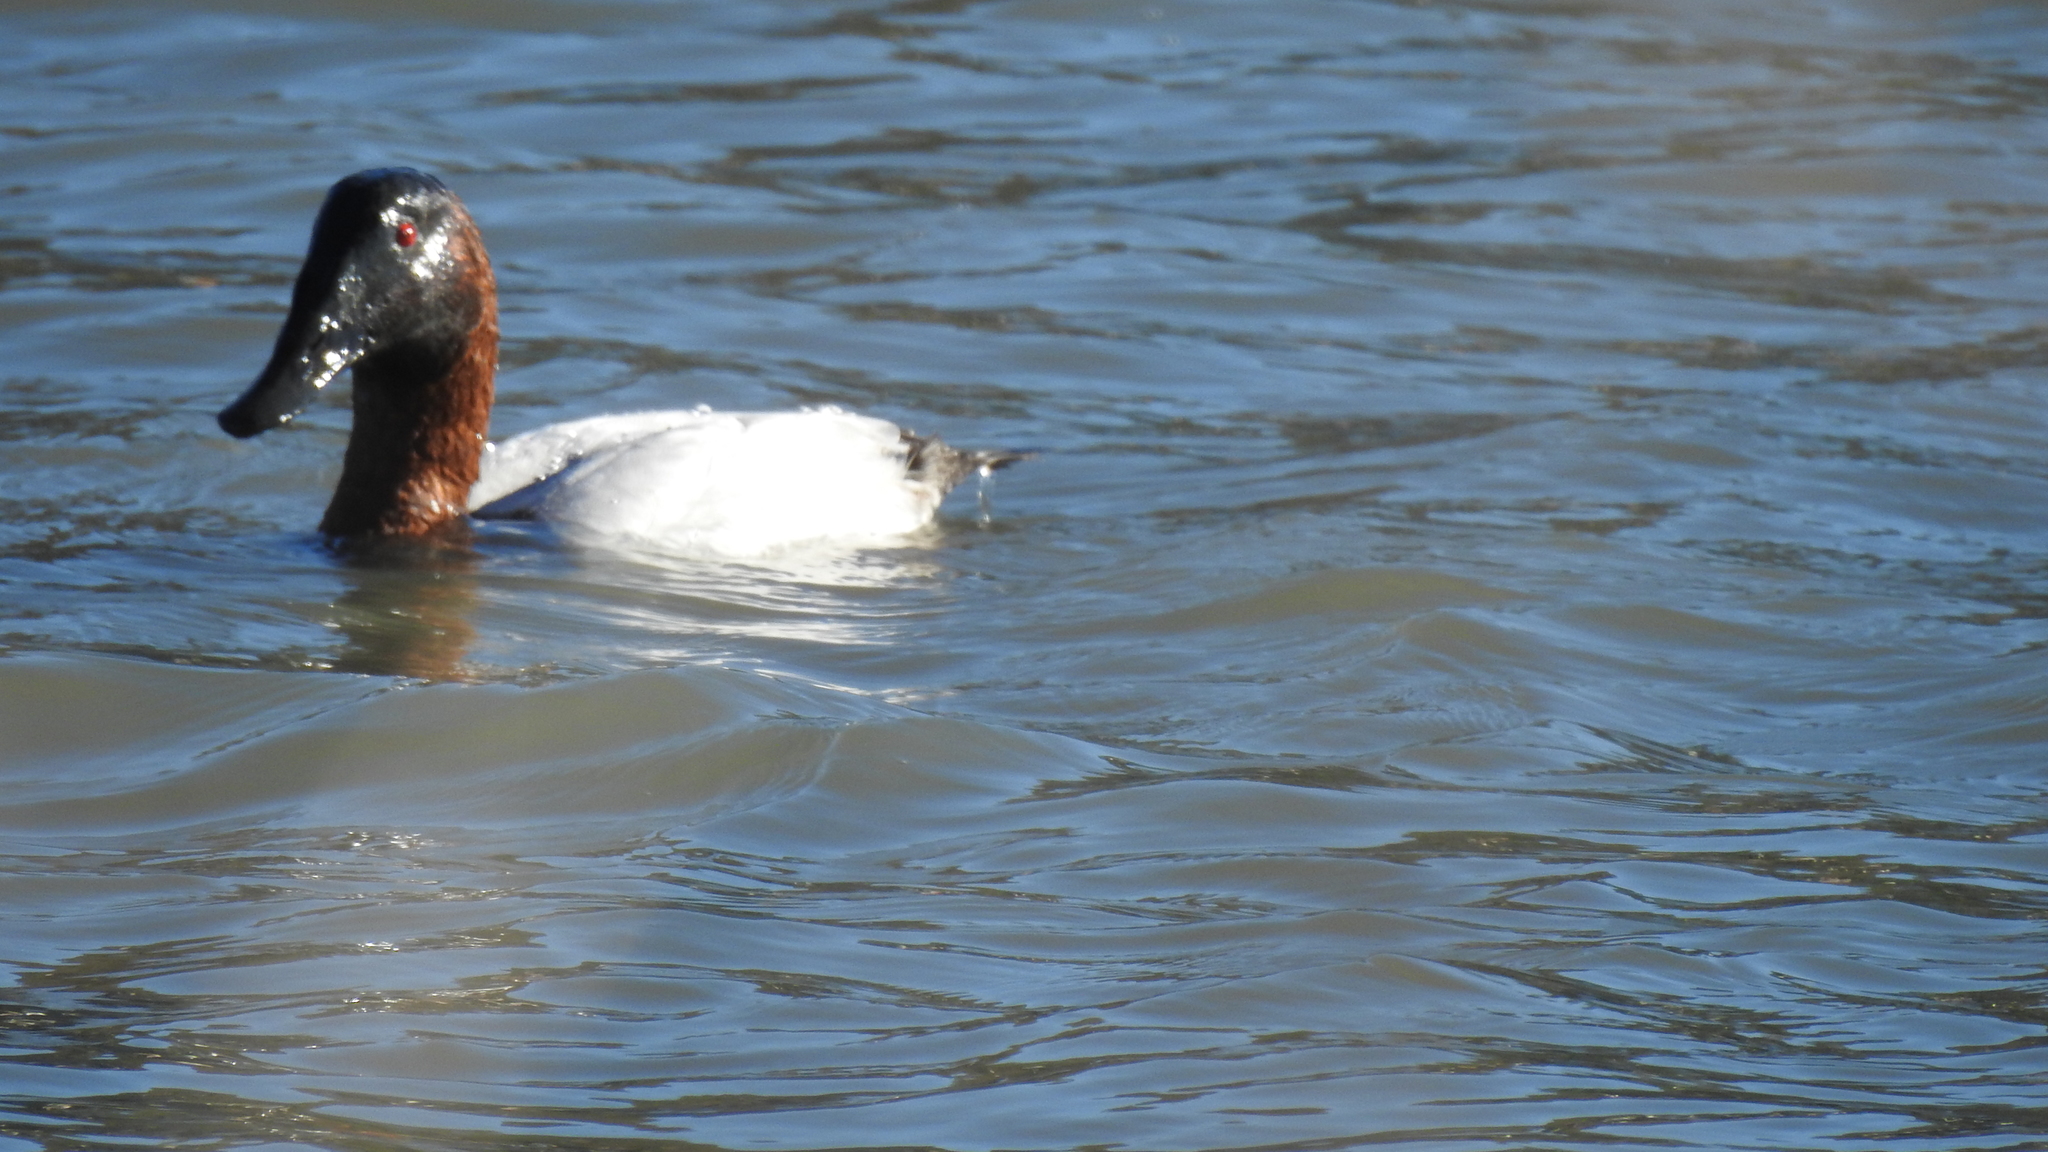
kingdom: Animalia
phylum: Chordata
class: Aves
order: Anseriformes
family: Anatidae
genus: Aythya
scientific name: Aythya valisineria
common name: Canvasback
